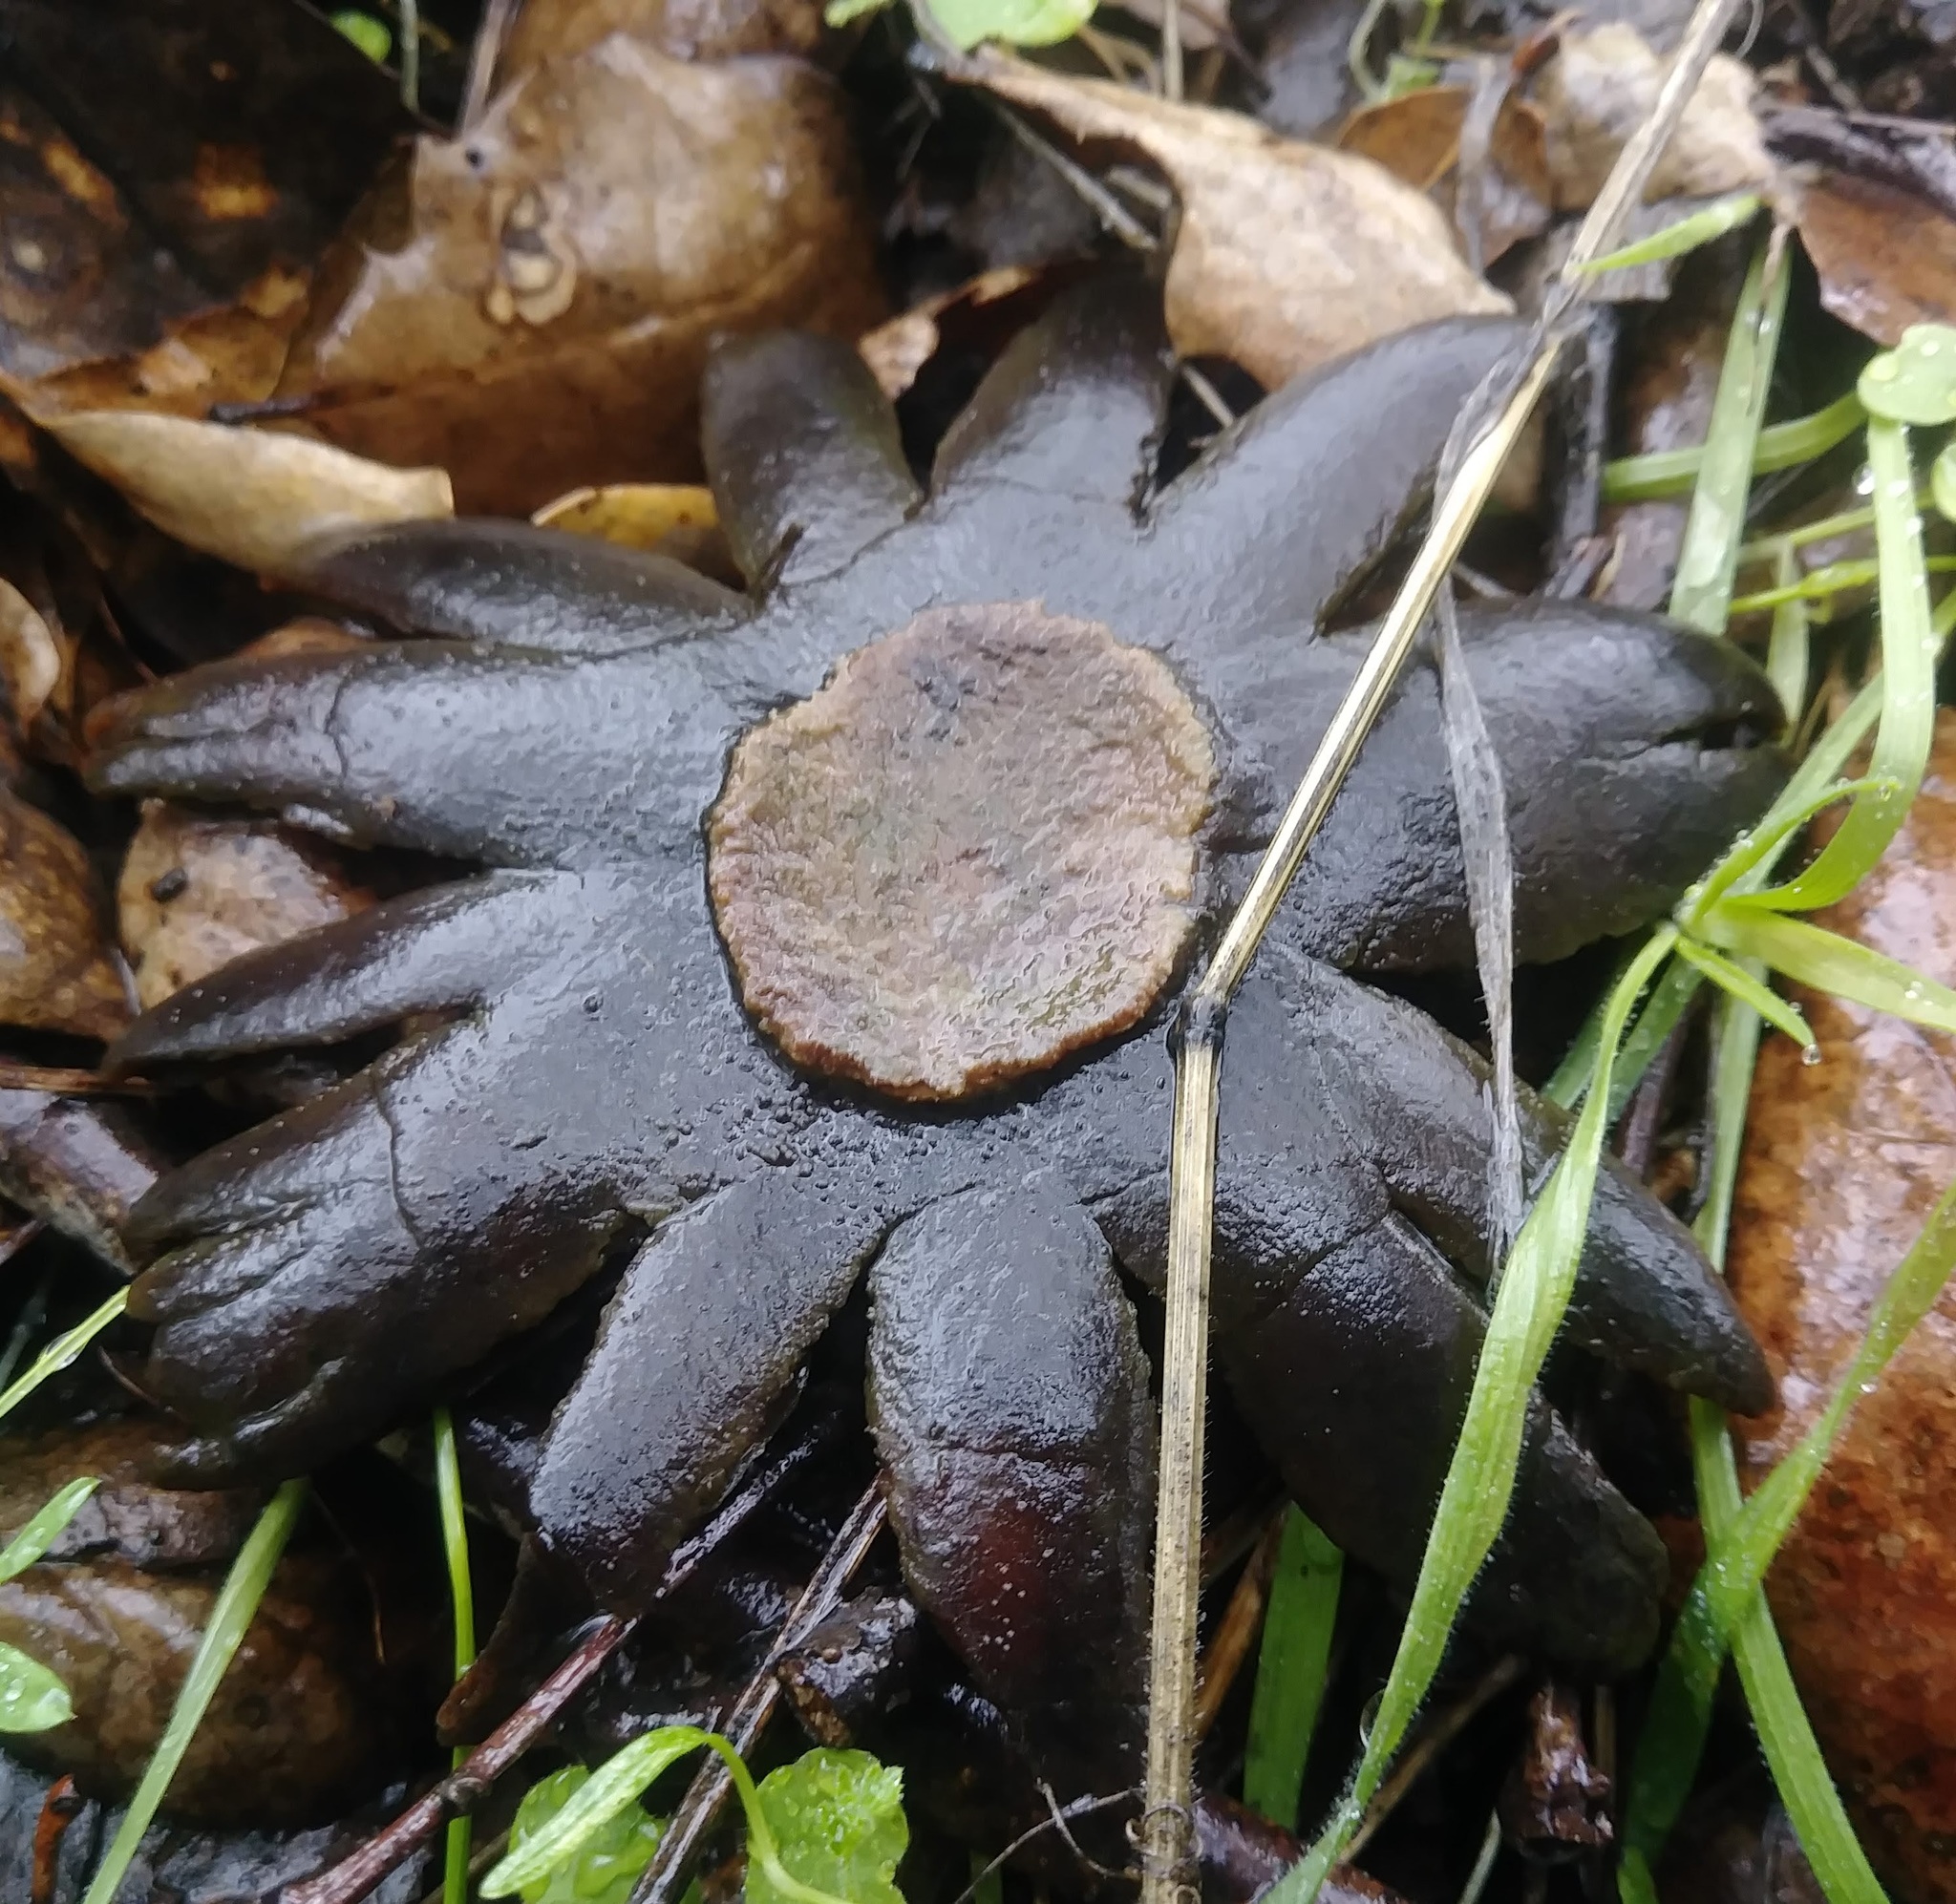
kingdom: Fungi
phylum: Basidiomycota
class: Agaricomycetes
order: Boletales
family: Diplocystidiaceae
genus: Astraeus
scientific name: Astraeus hygrometricus
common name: Barometer earthstar
